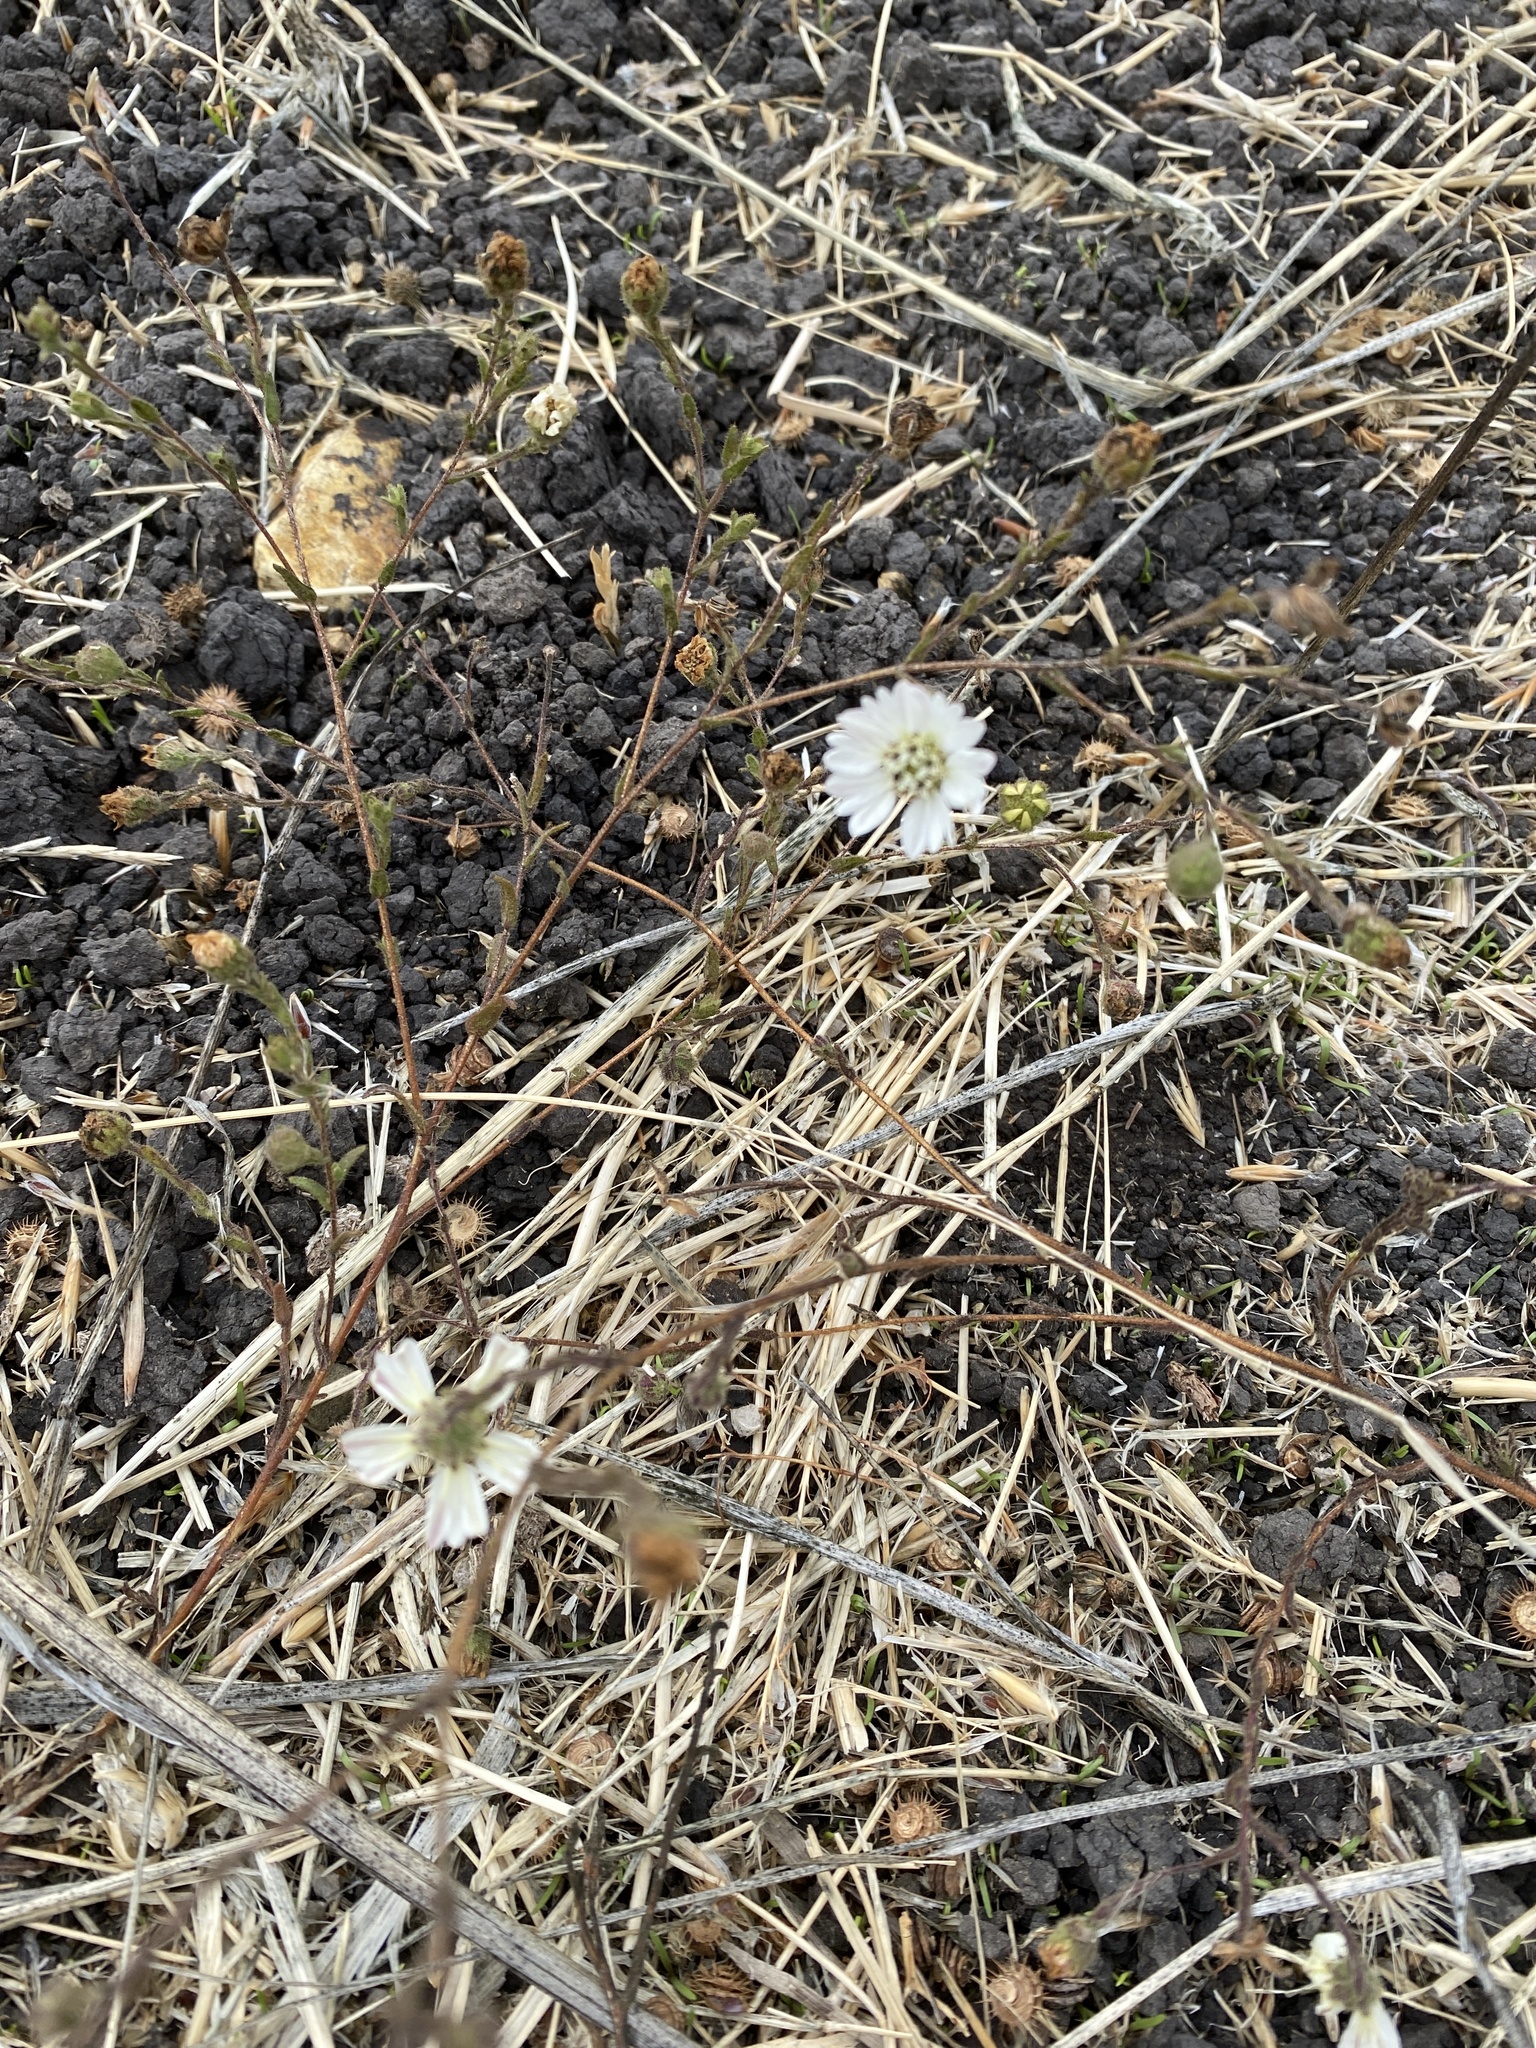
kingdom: Plantae
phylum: Tracheophyta
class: Magnoliopsida
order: Asterales
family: Asteraceae
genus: Hemizonia
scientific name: Hemizonia congesta
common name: Hayfield tarweed
